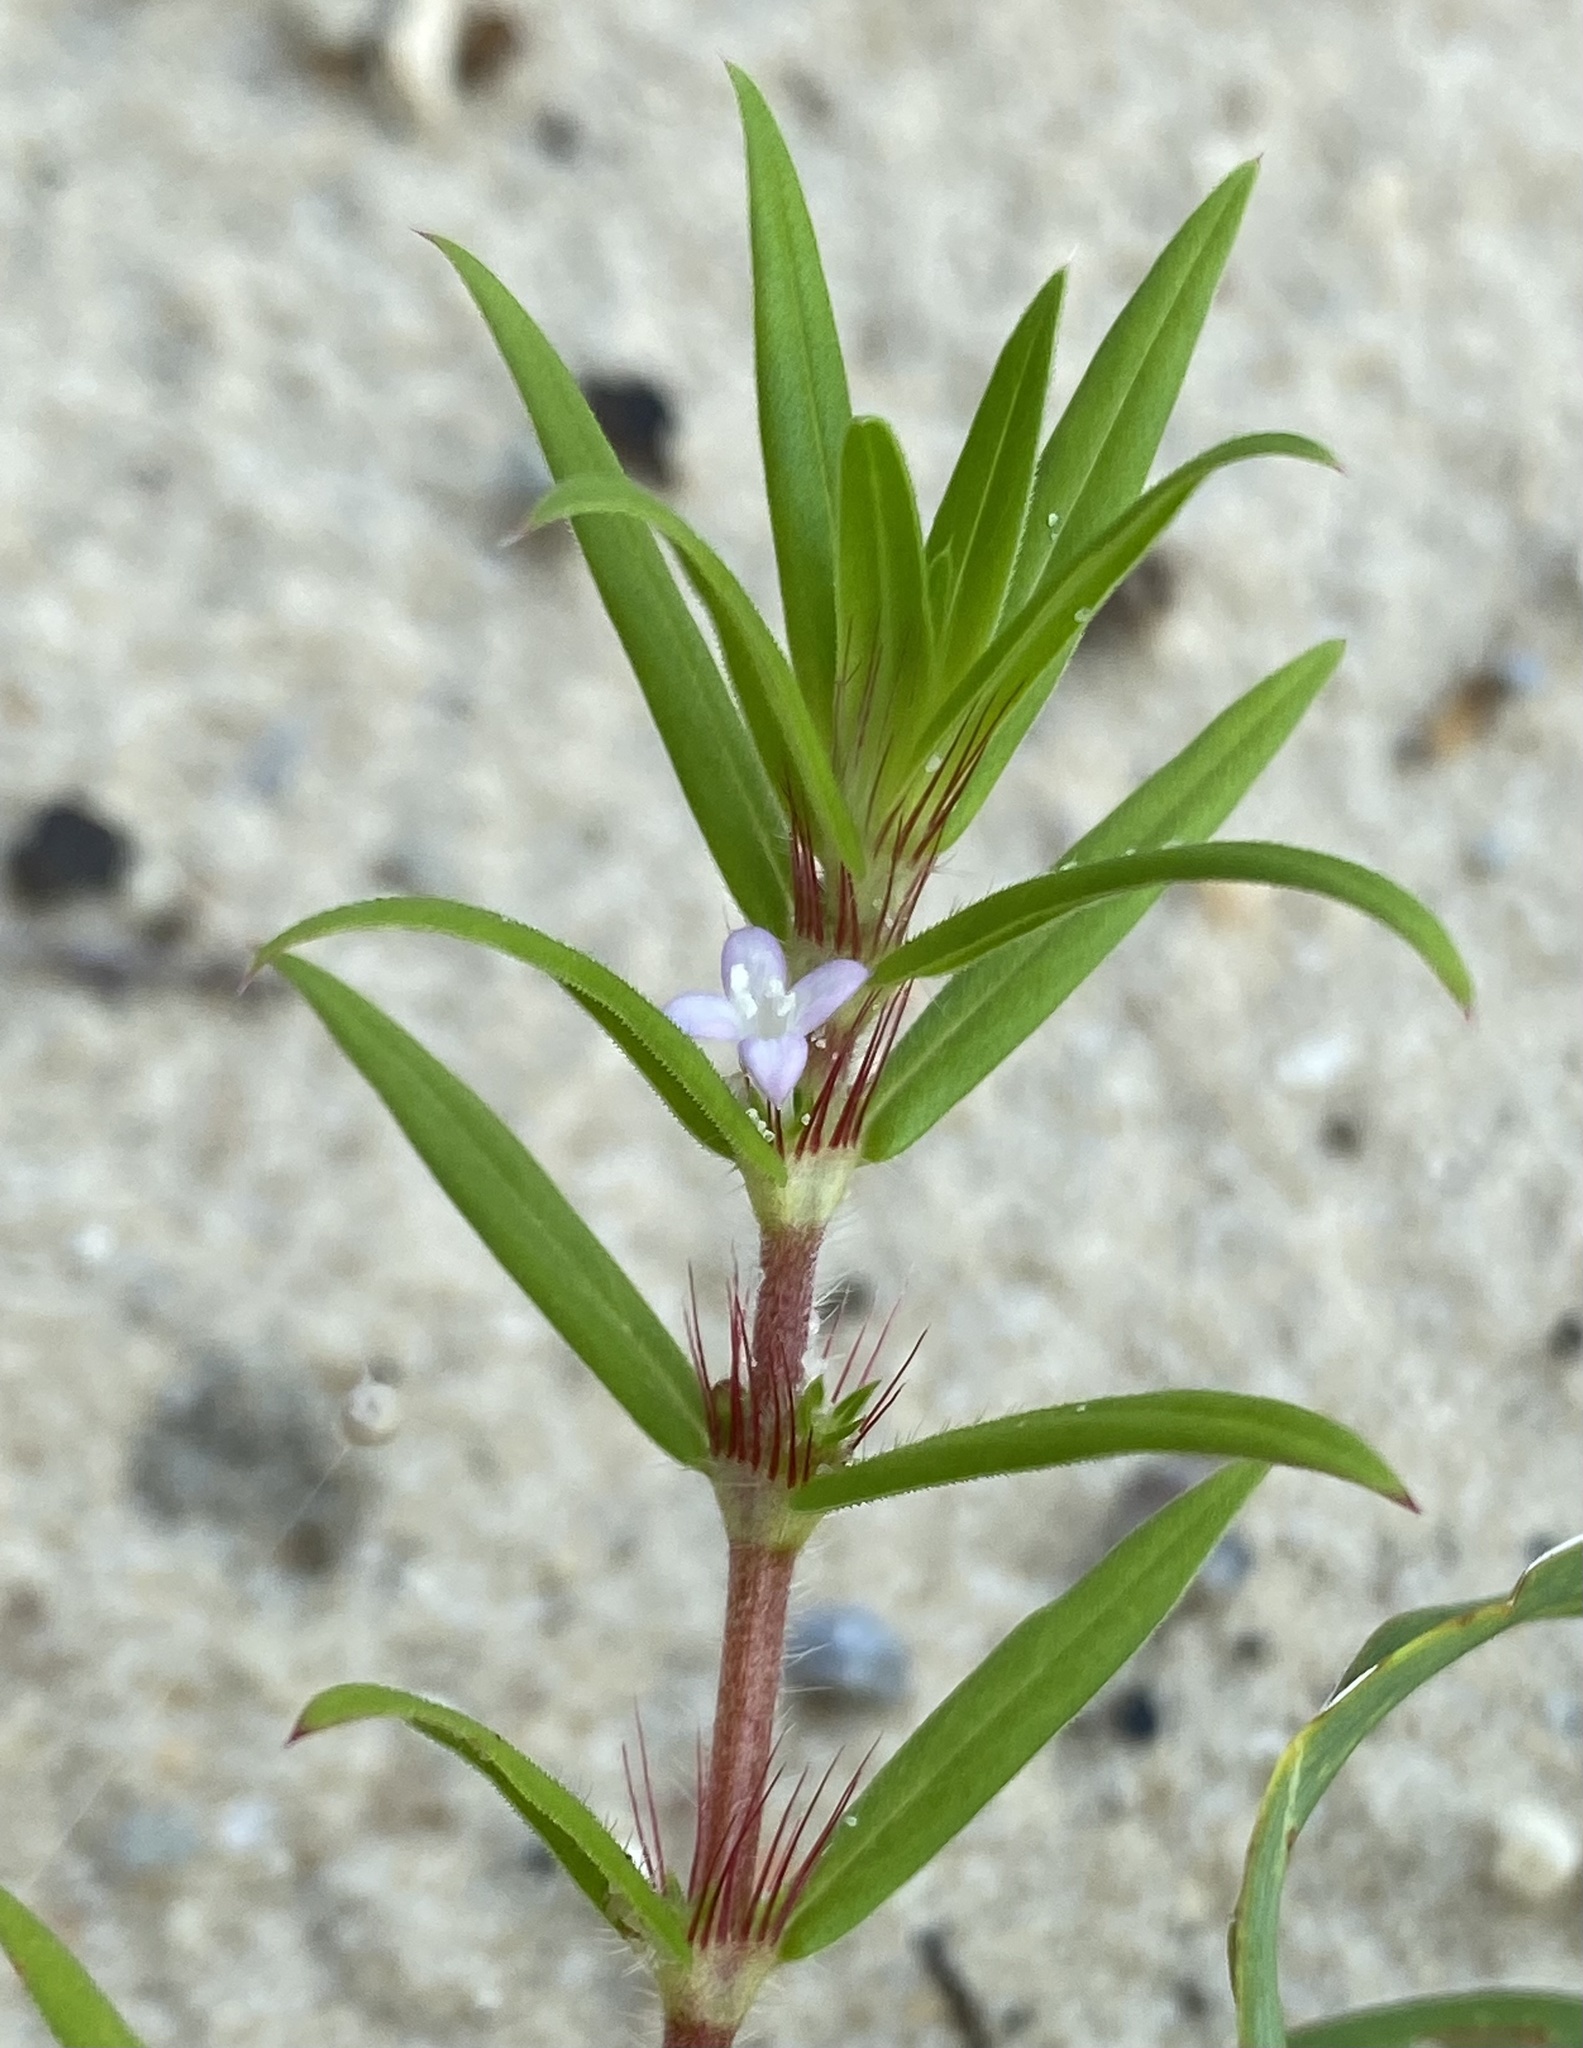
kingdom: Plantae
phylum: Tracheophyta
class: Magnoliopsida
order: Gentianales
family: Rubiaceae
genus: Hexasepalum
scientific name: Hexasepalum teres
